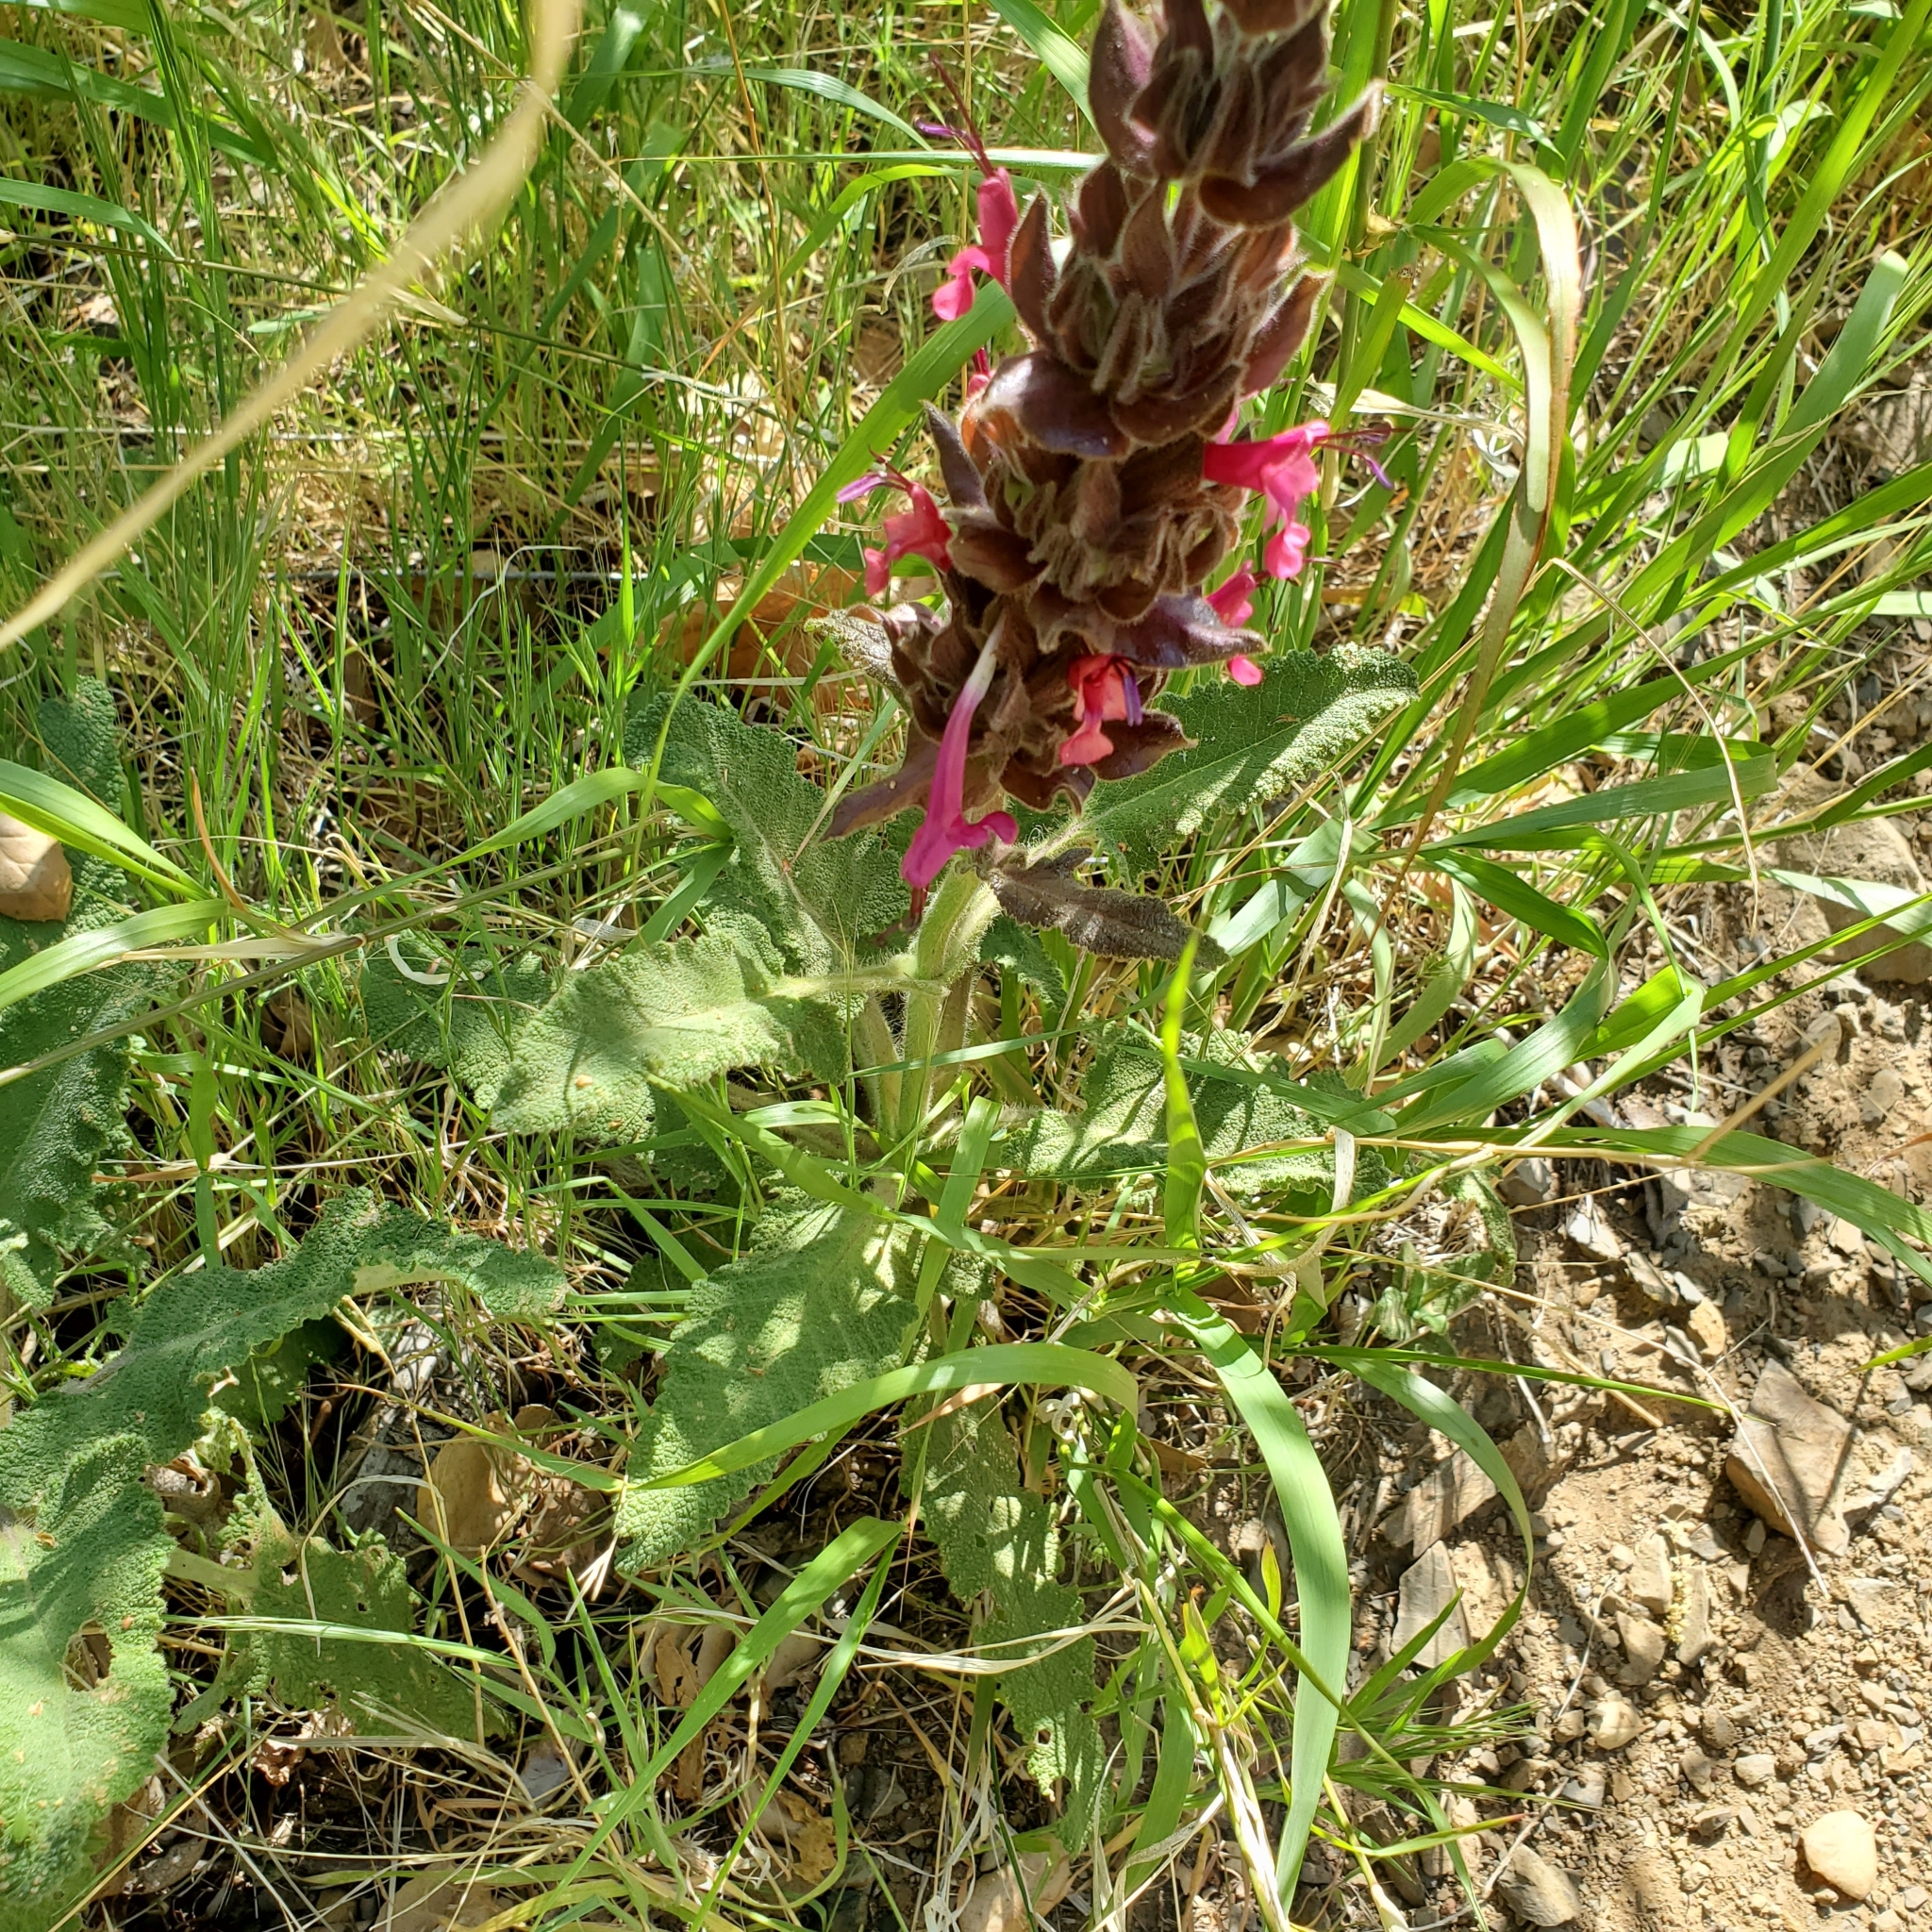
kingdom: Plantae
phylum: Tracheophyta
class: Magnoliopsida
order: Lamiales
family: Lamiaceae
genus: Salvia
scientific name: Salvia spathacea
